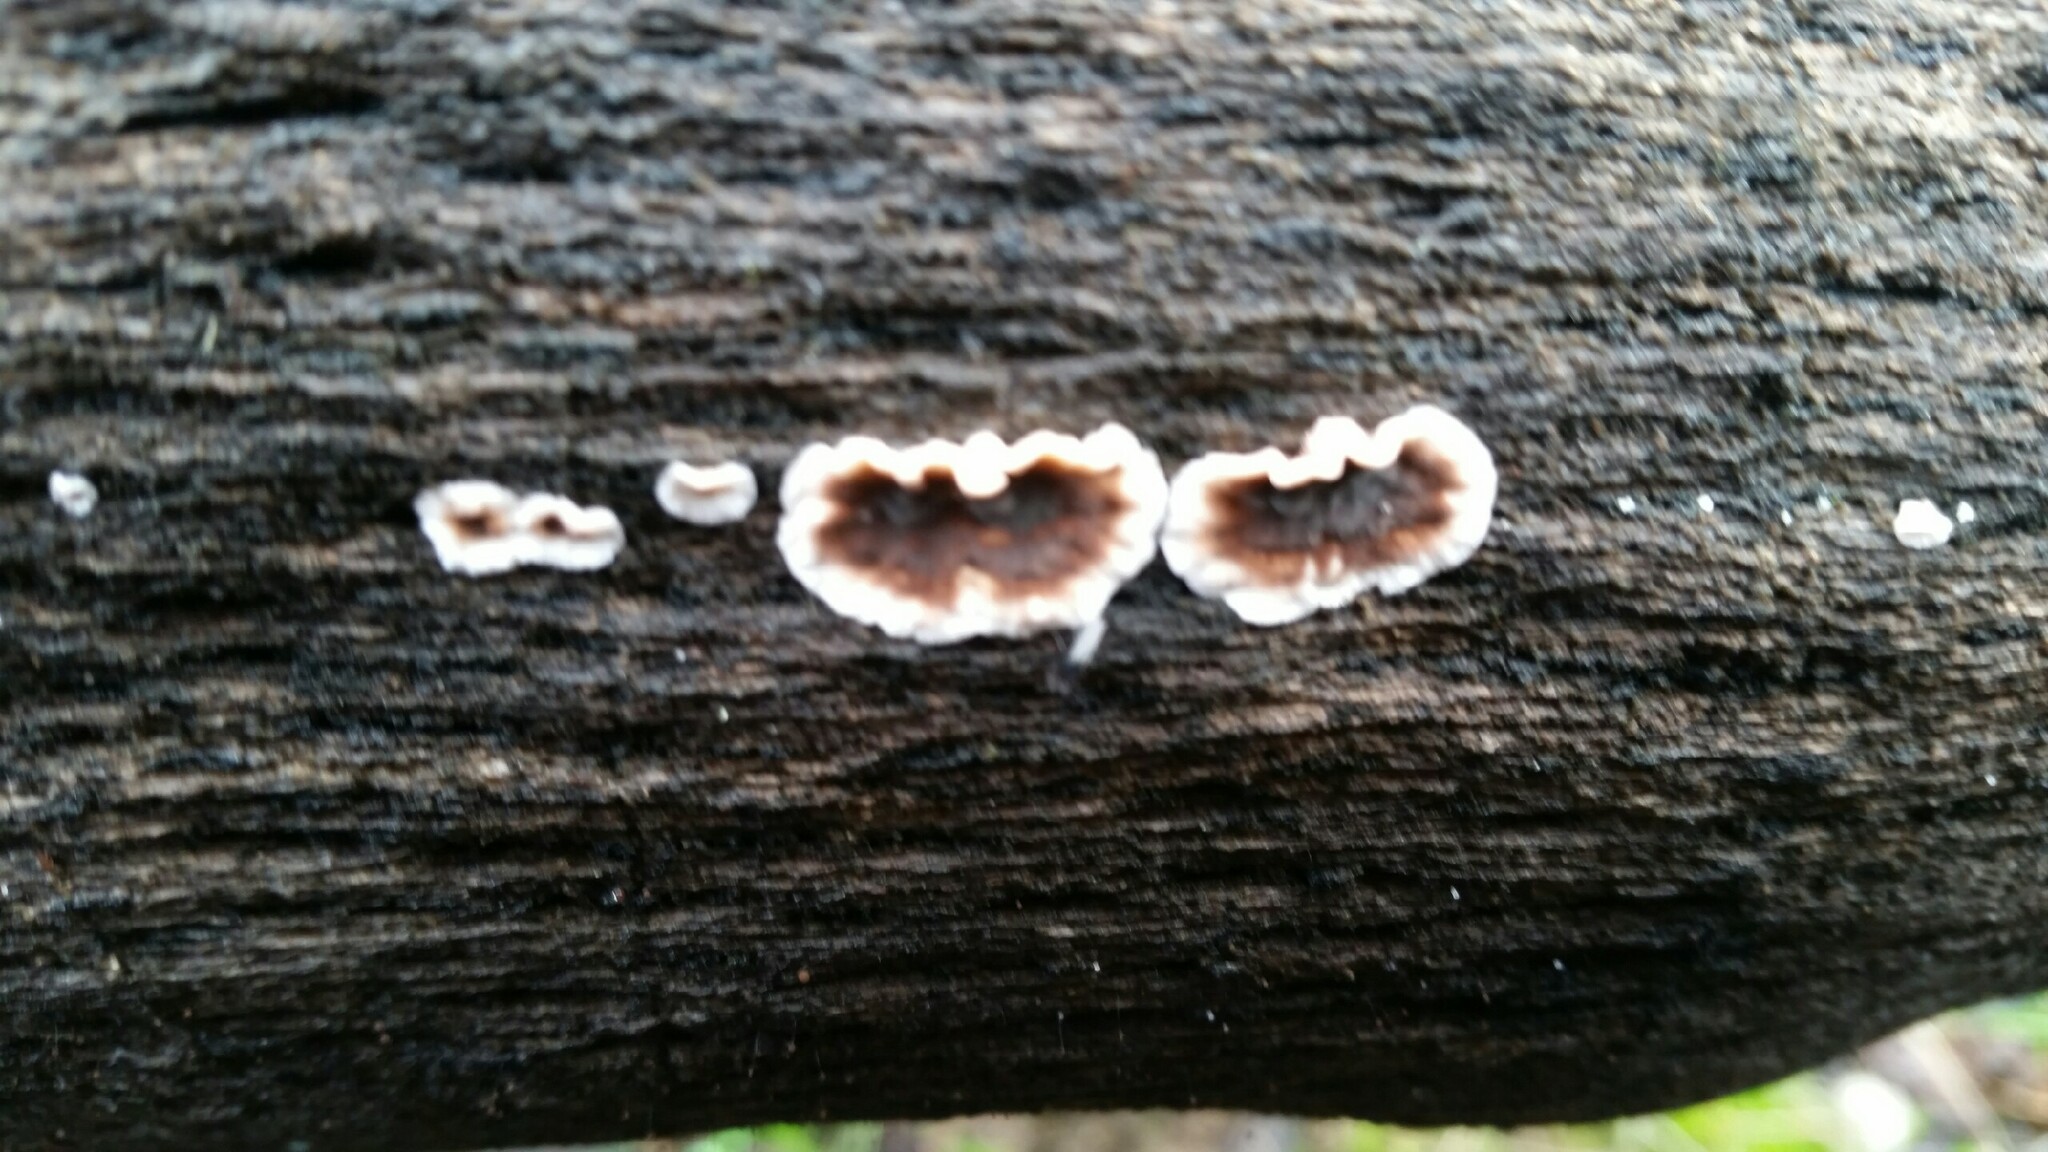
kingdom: Fungi
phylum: Basidiomycota
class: Agaricomycetes
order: Russulales
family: Peniophoraceae
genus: Peniophora
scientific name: Peniophora albobadia
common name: Giraffe spots
